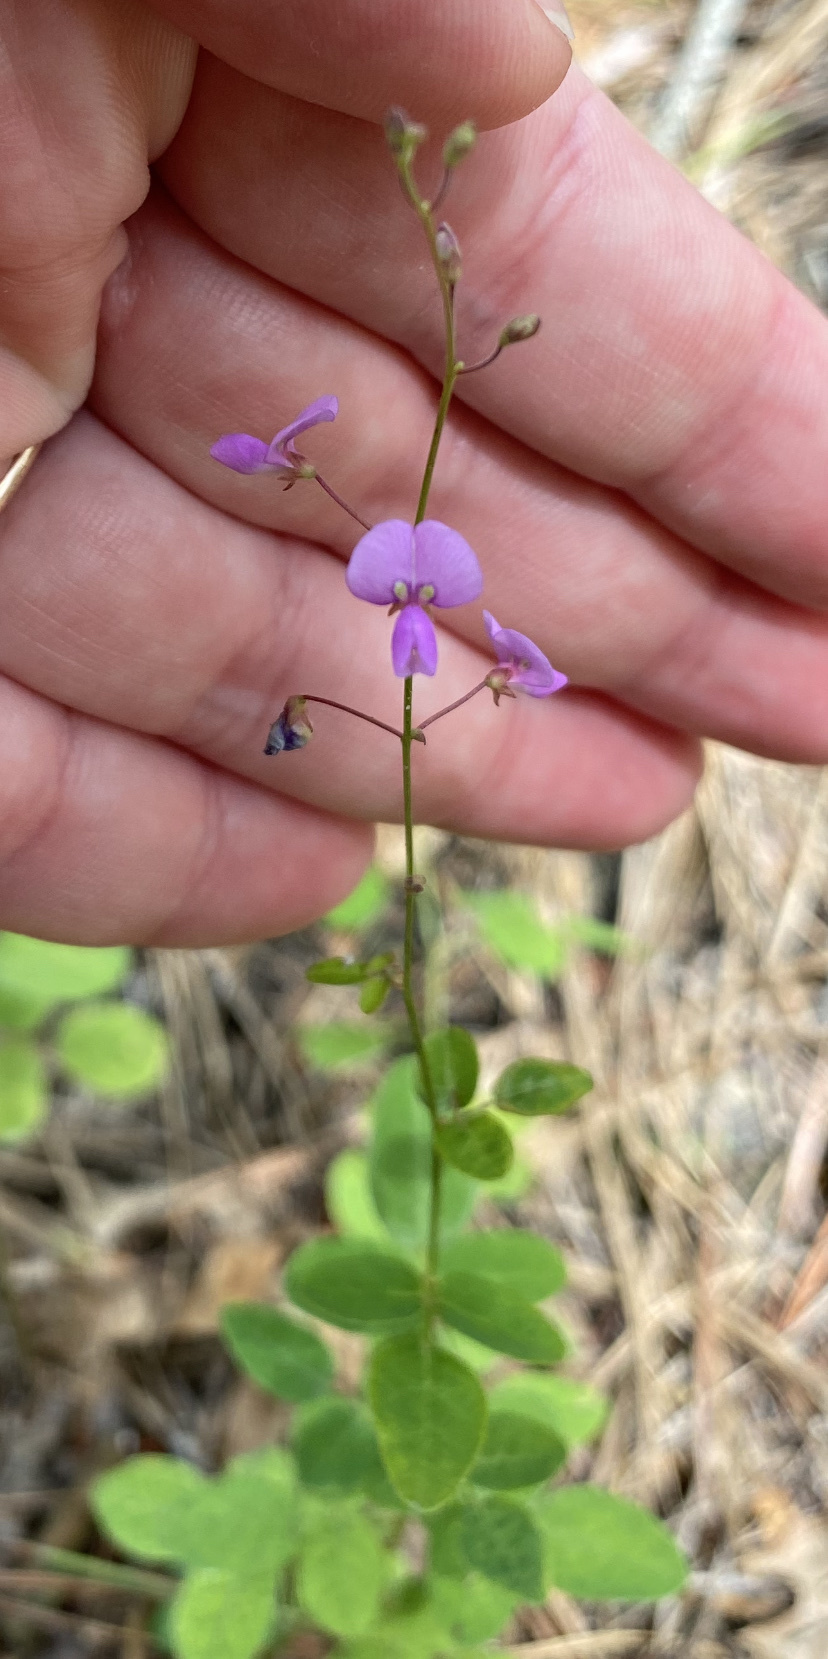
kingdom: Plantae
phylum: Tracheophyta
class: Magnoliopsida
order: Fabales
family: Fabaceae
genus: Desmodium
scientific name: Desmodium ciliare
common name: Hairy small-leaf ticktrefoil
